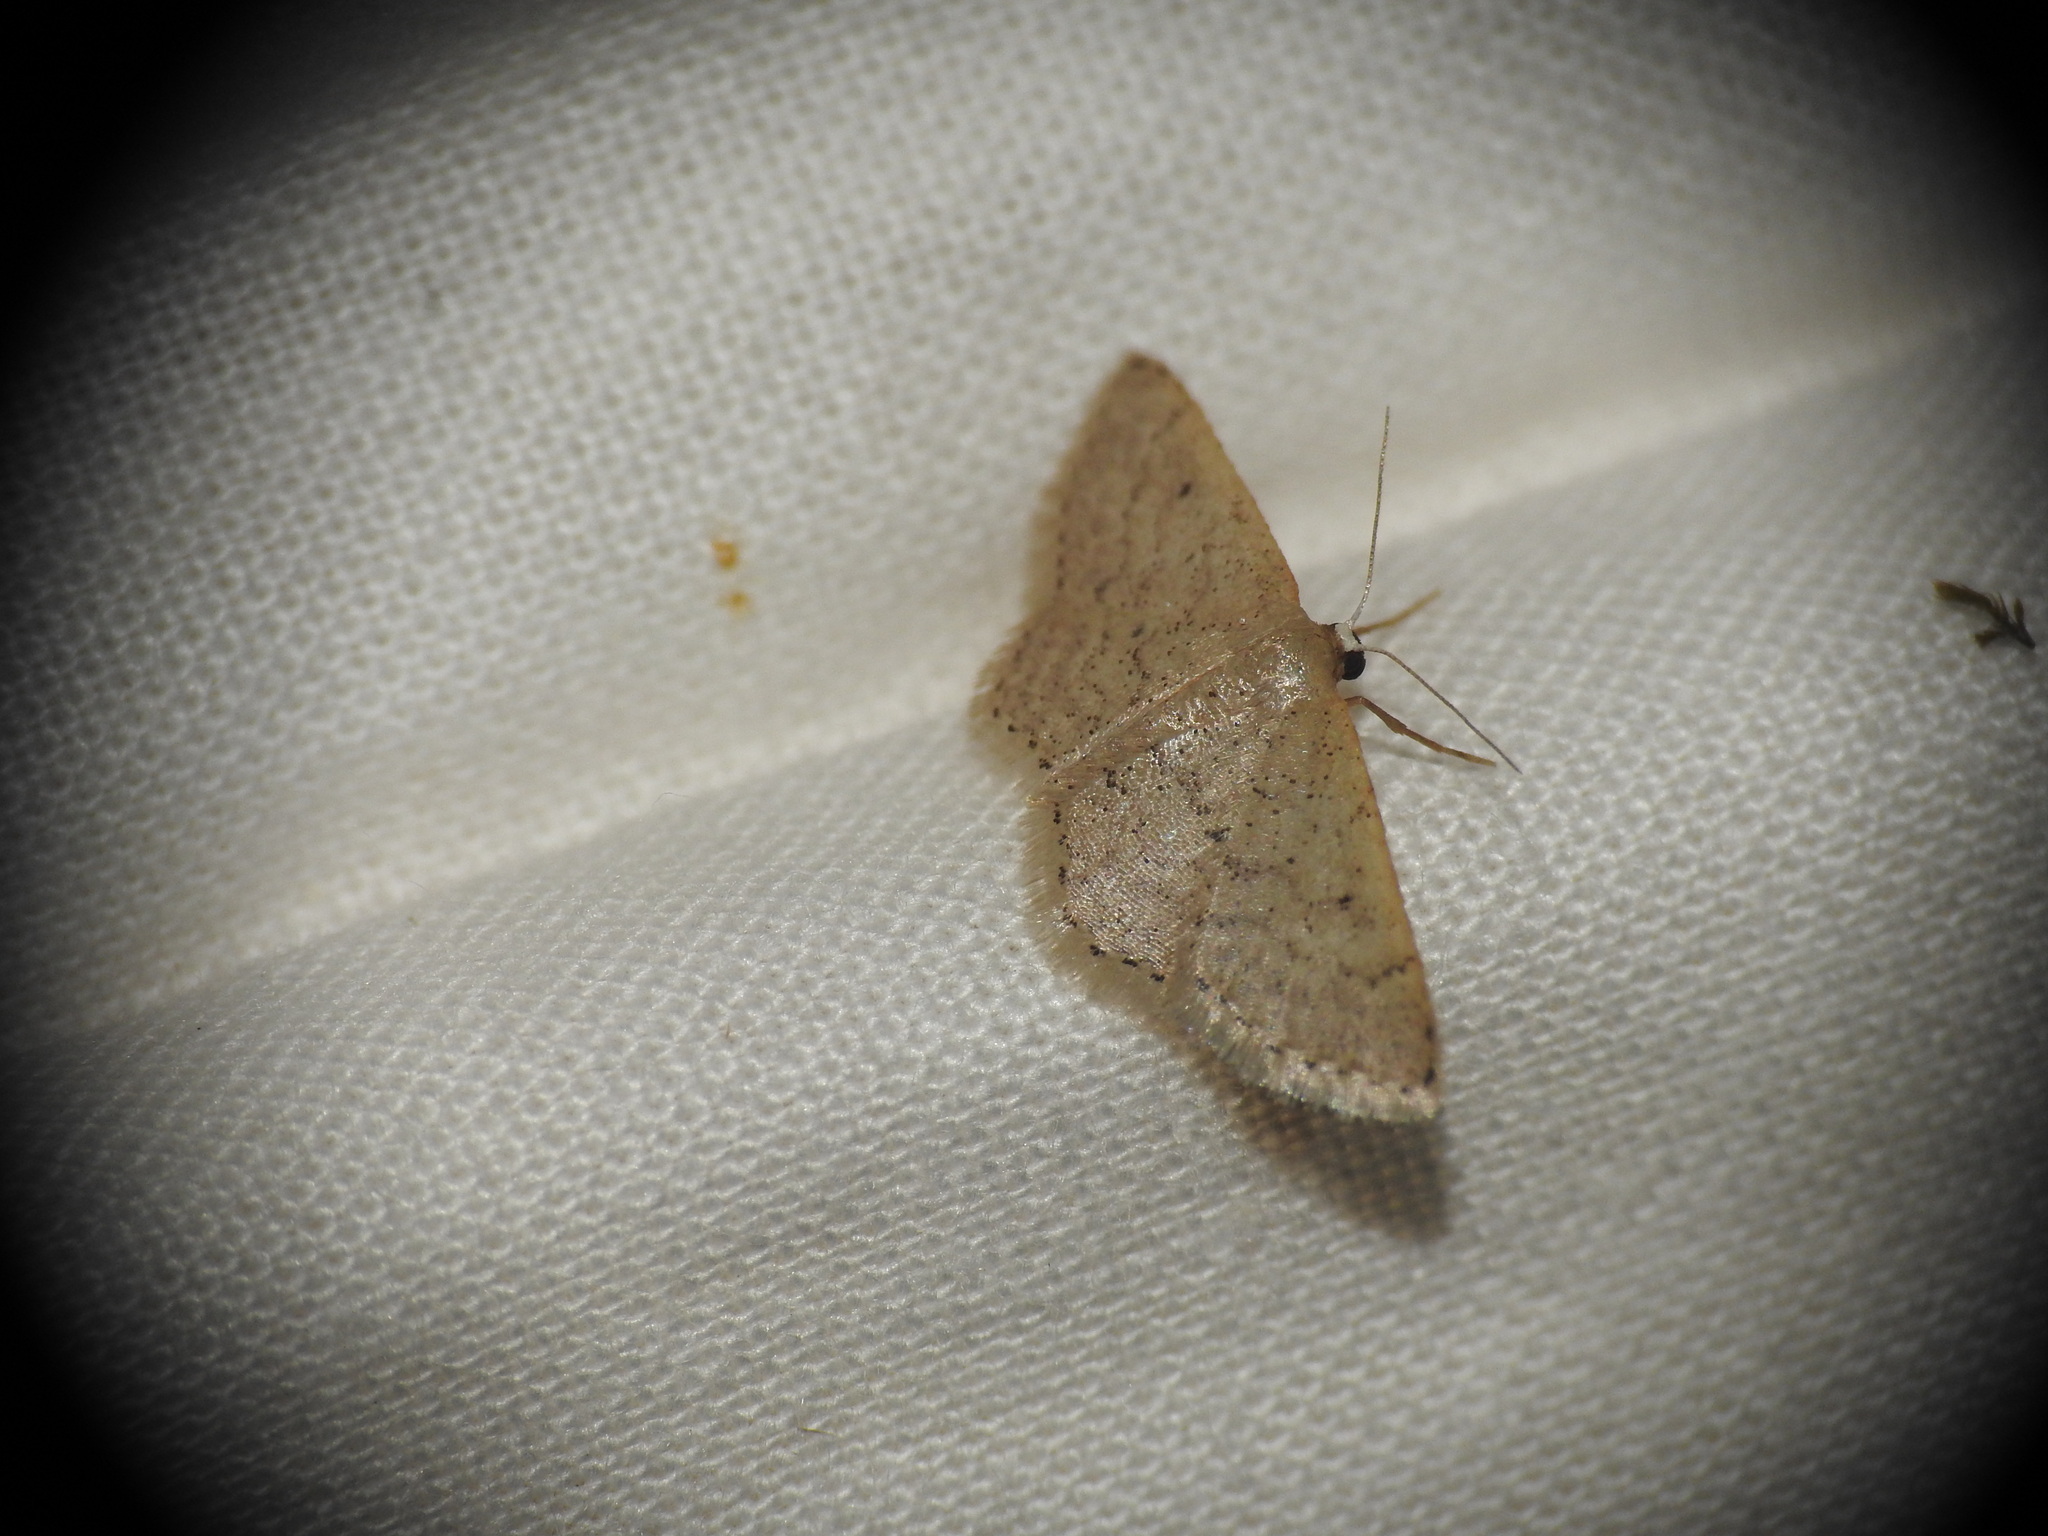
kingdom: Animalia
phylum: Arthropoda
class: Insecta
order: Lepidoptera
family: Geometridae
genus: Idaea
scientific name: Idaea obsoletaria
